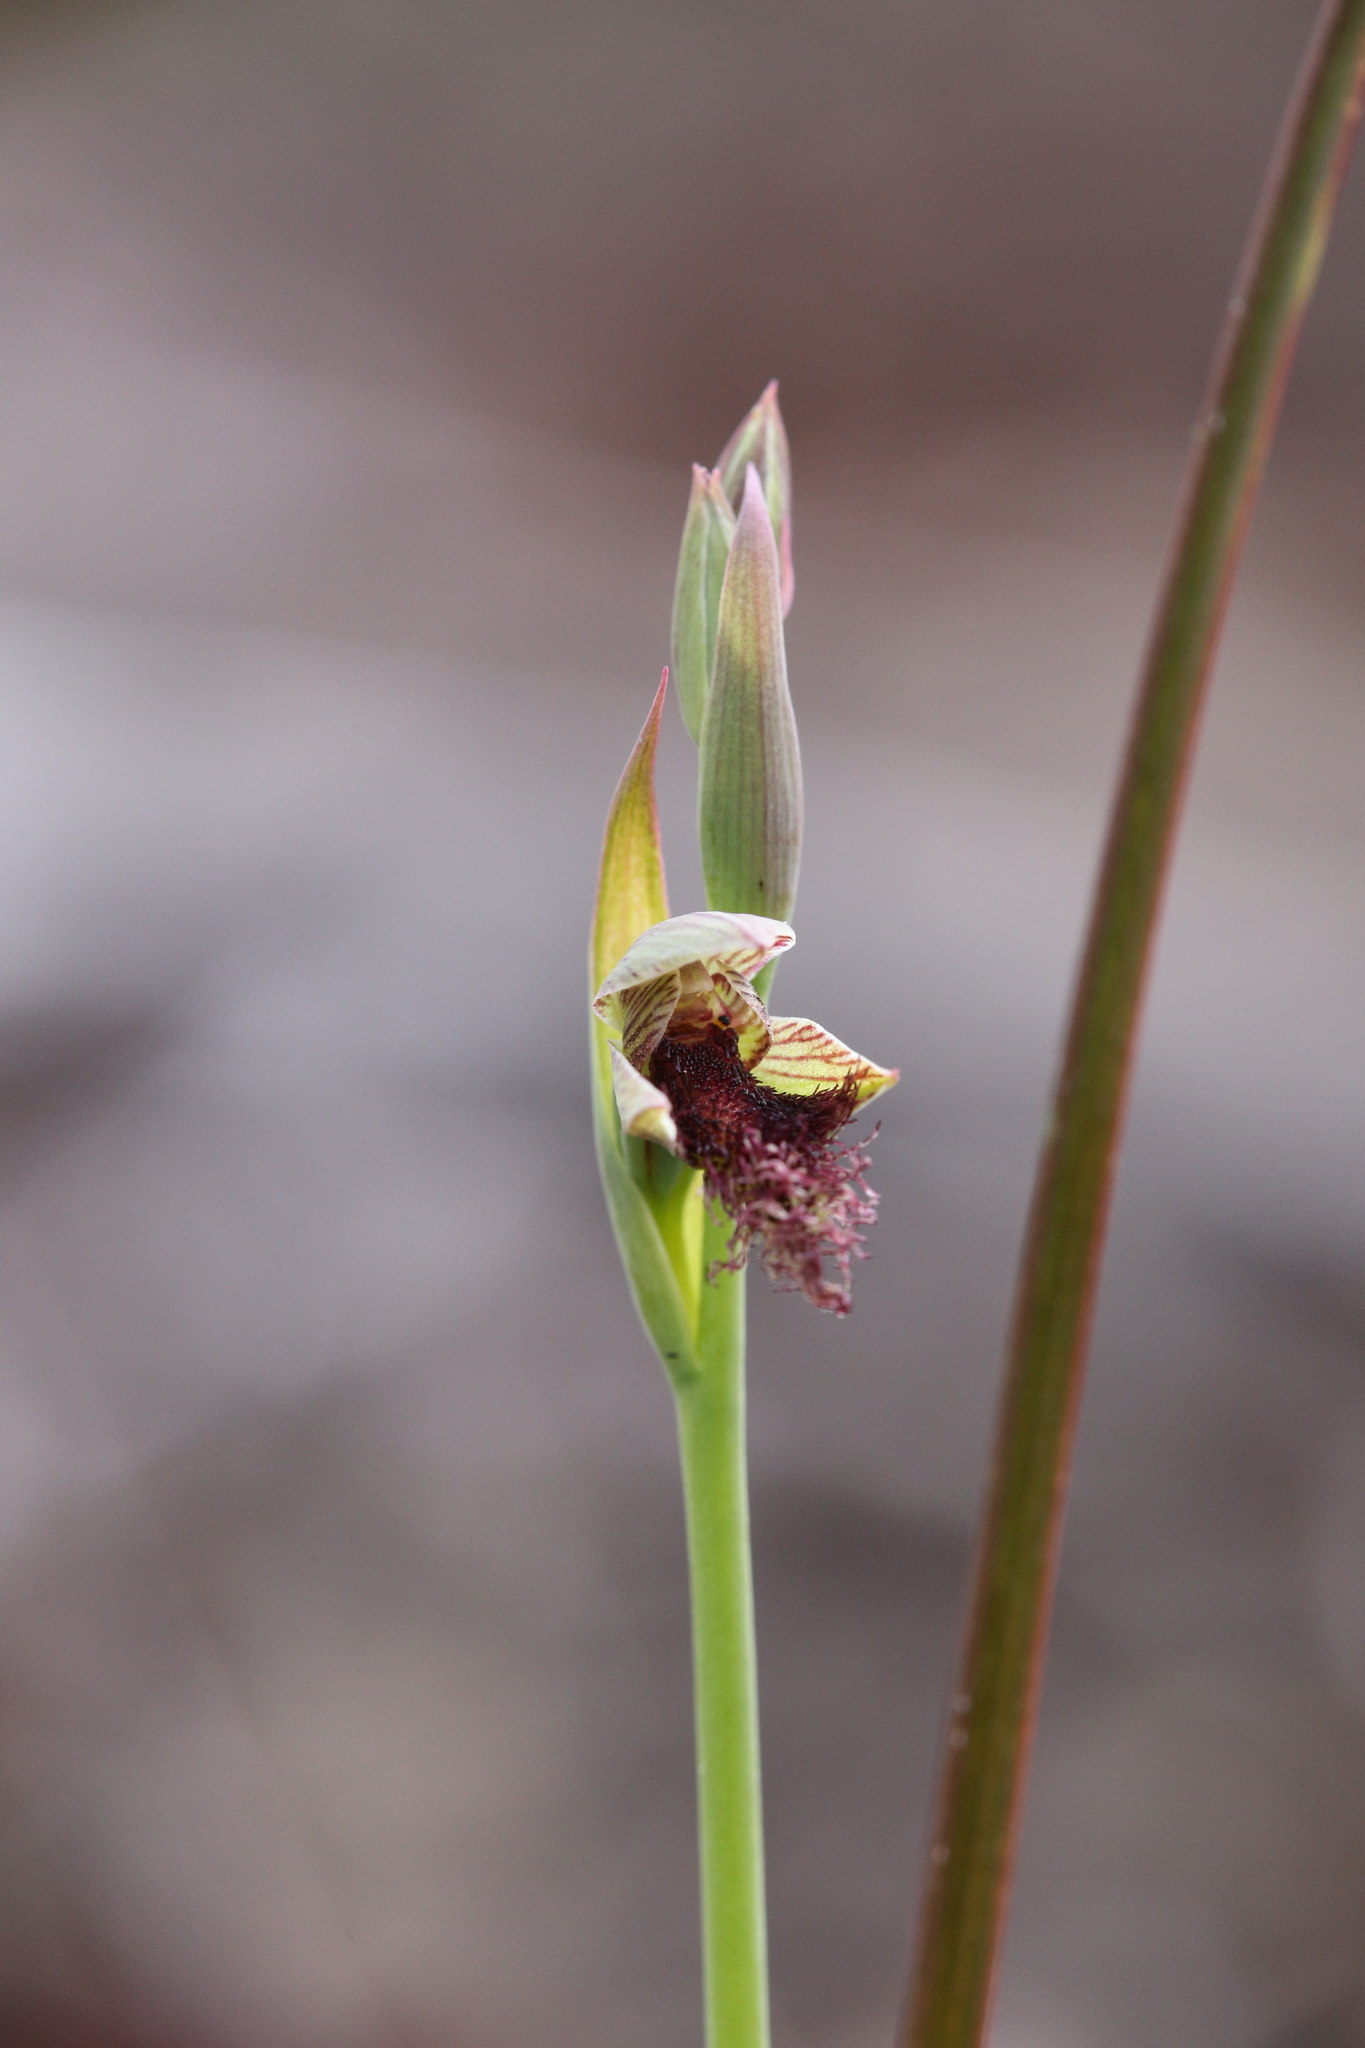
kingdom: Plantae
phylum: Tracheophyta
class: Liliopsida
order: Asparagales
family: Orchidaceae
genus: Calochilus
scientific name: Calochilus stramenicola
